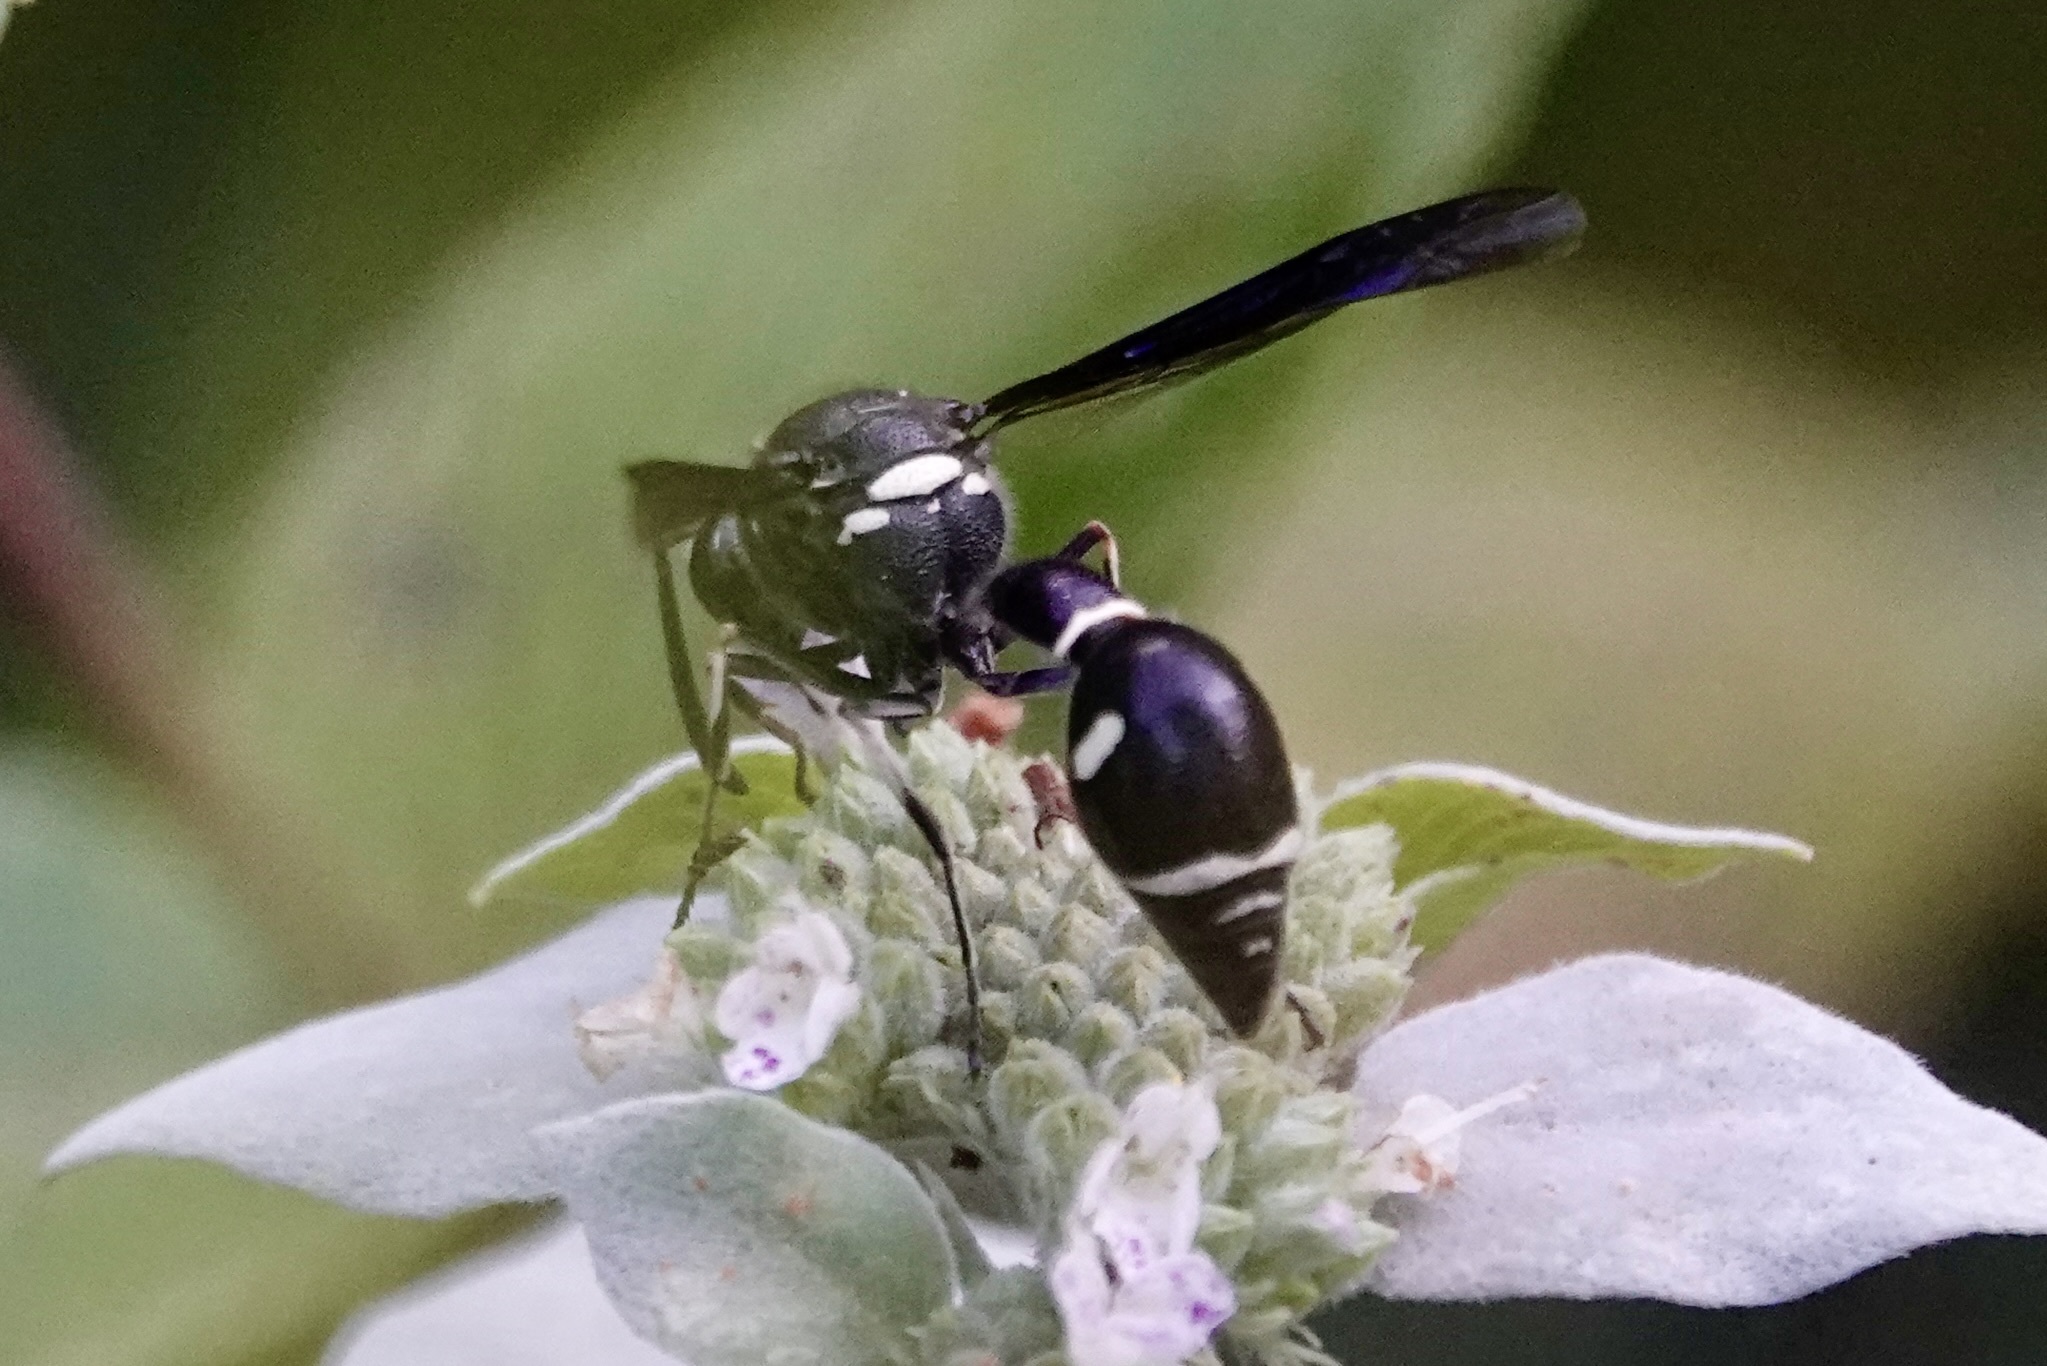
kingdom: Animalia
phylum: Arthropoda
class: Insecta
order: Hymenoptera
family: Vespidae
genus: Eumenes
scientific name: Eumenes fraternus
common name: Fraternal potter wasp
